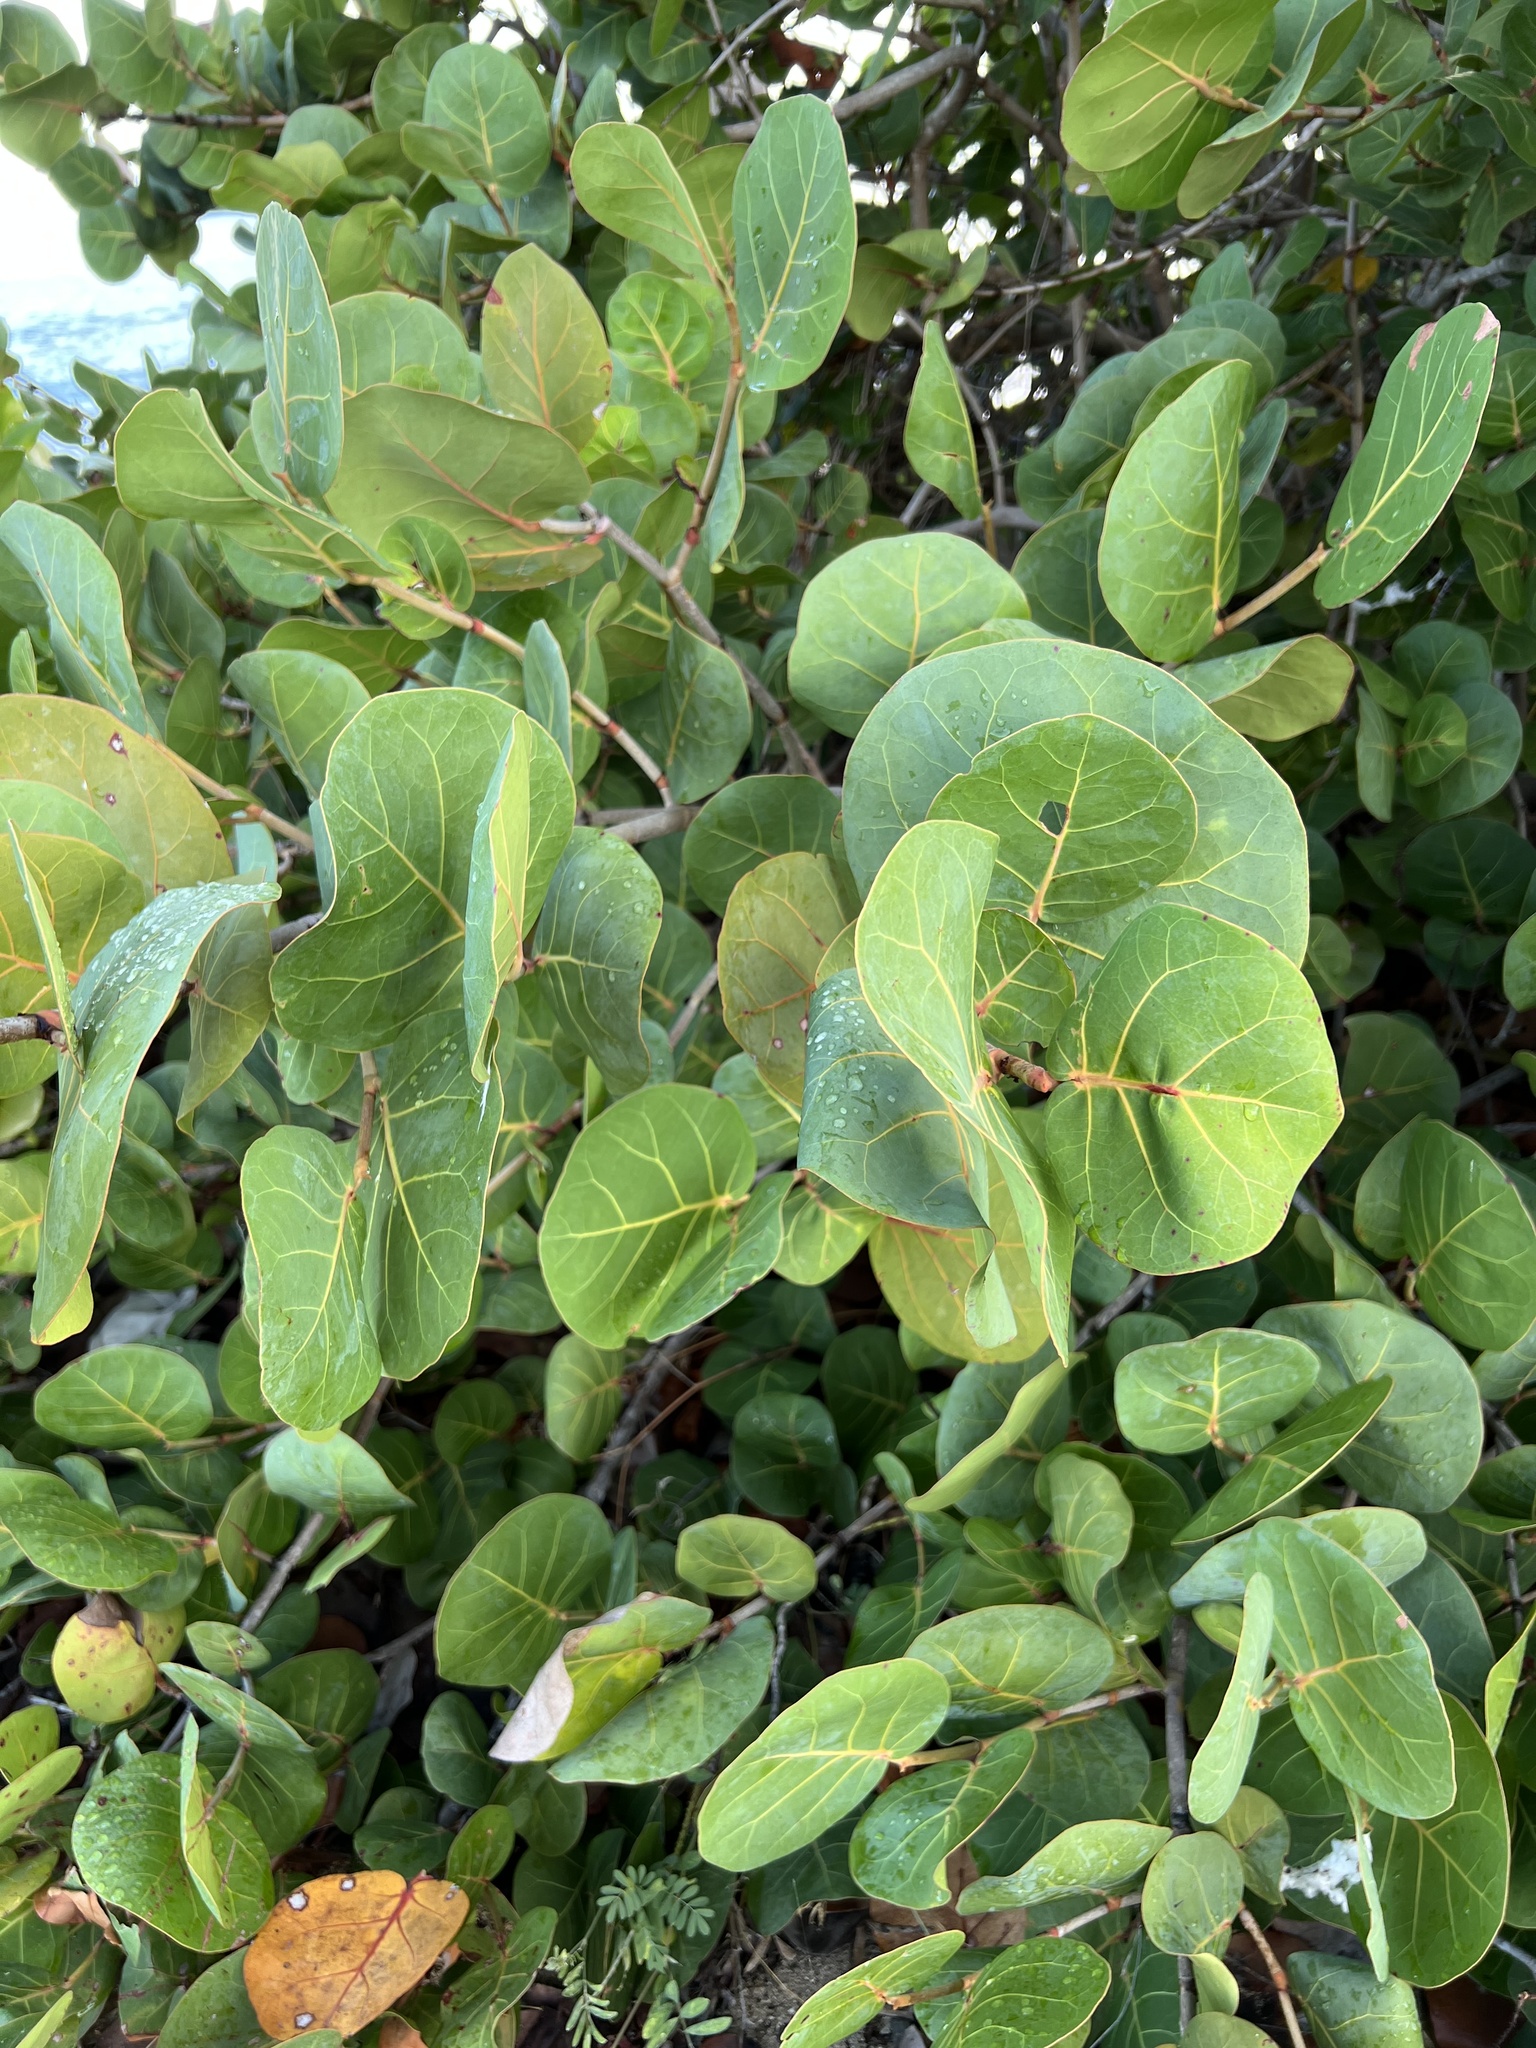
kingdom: Plantae
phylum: Tracheophyta
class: Magnoliopsida
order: Caryophyllales
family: Polygonaceae
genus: Coccoloba
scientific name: Coccoloba uvifera
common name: Seagrape
